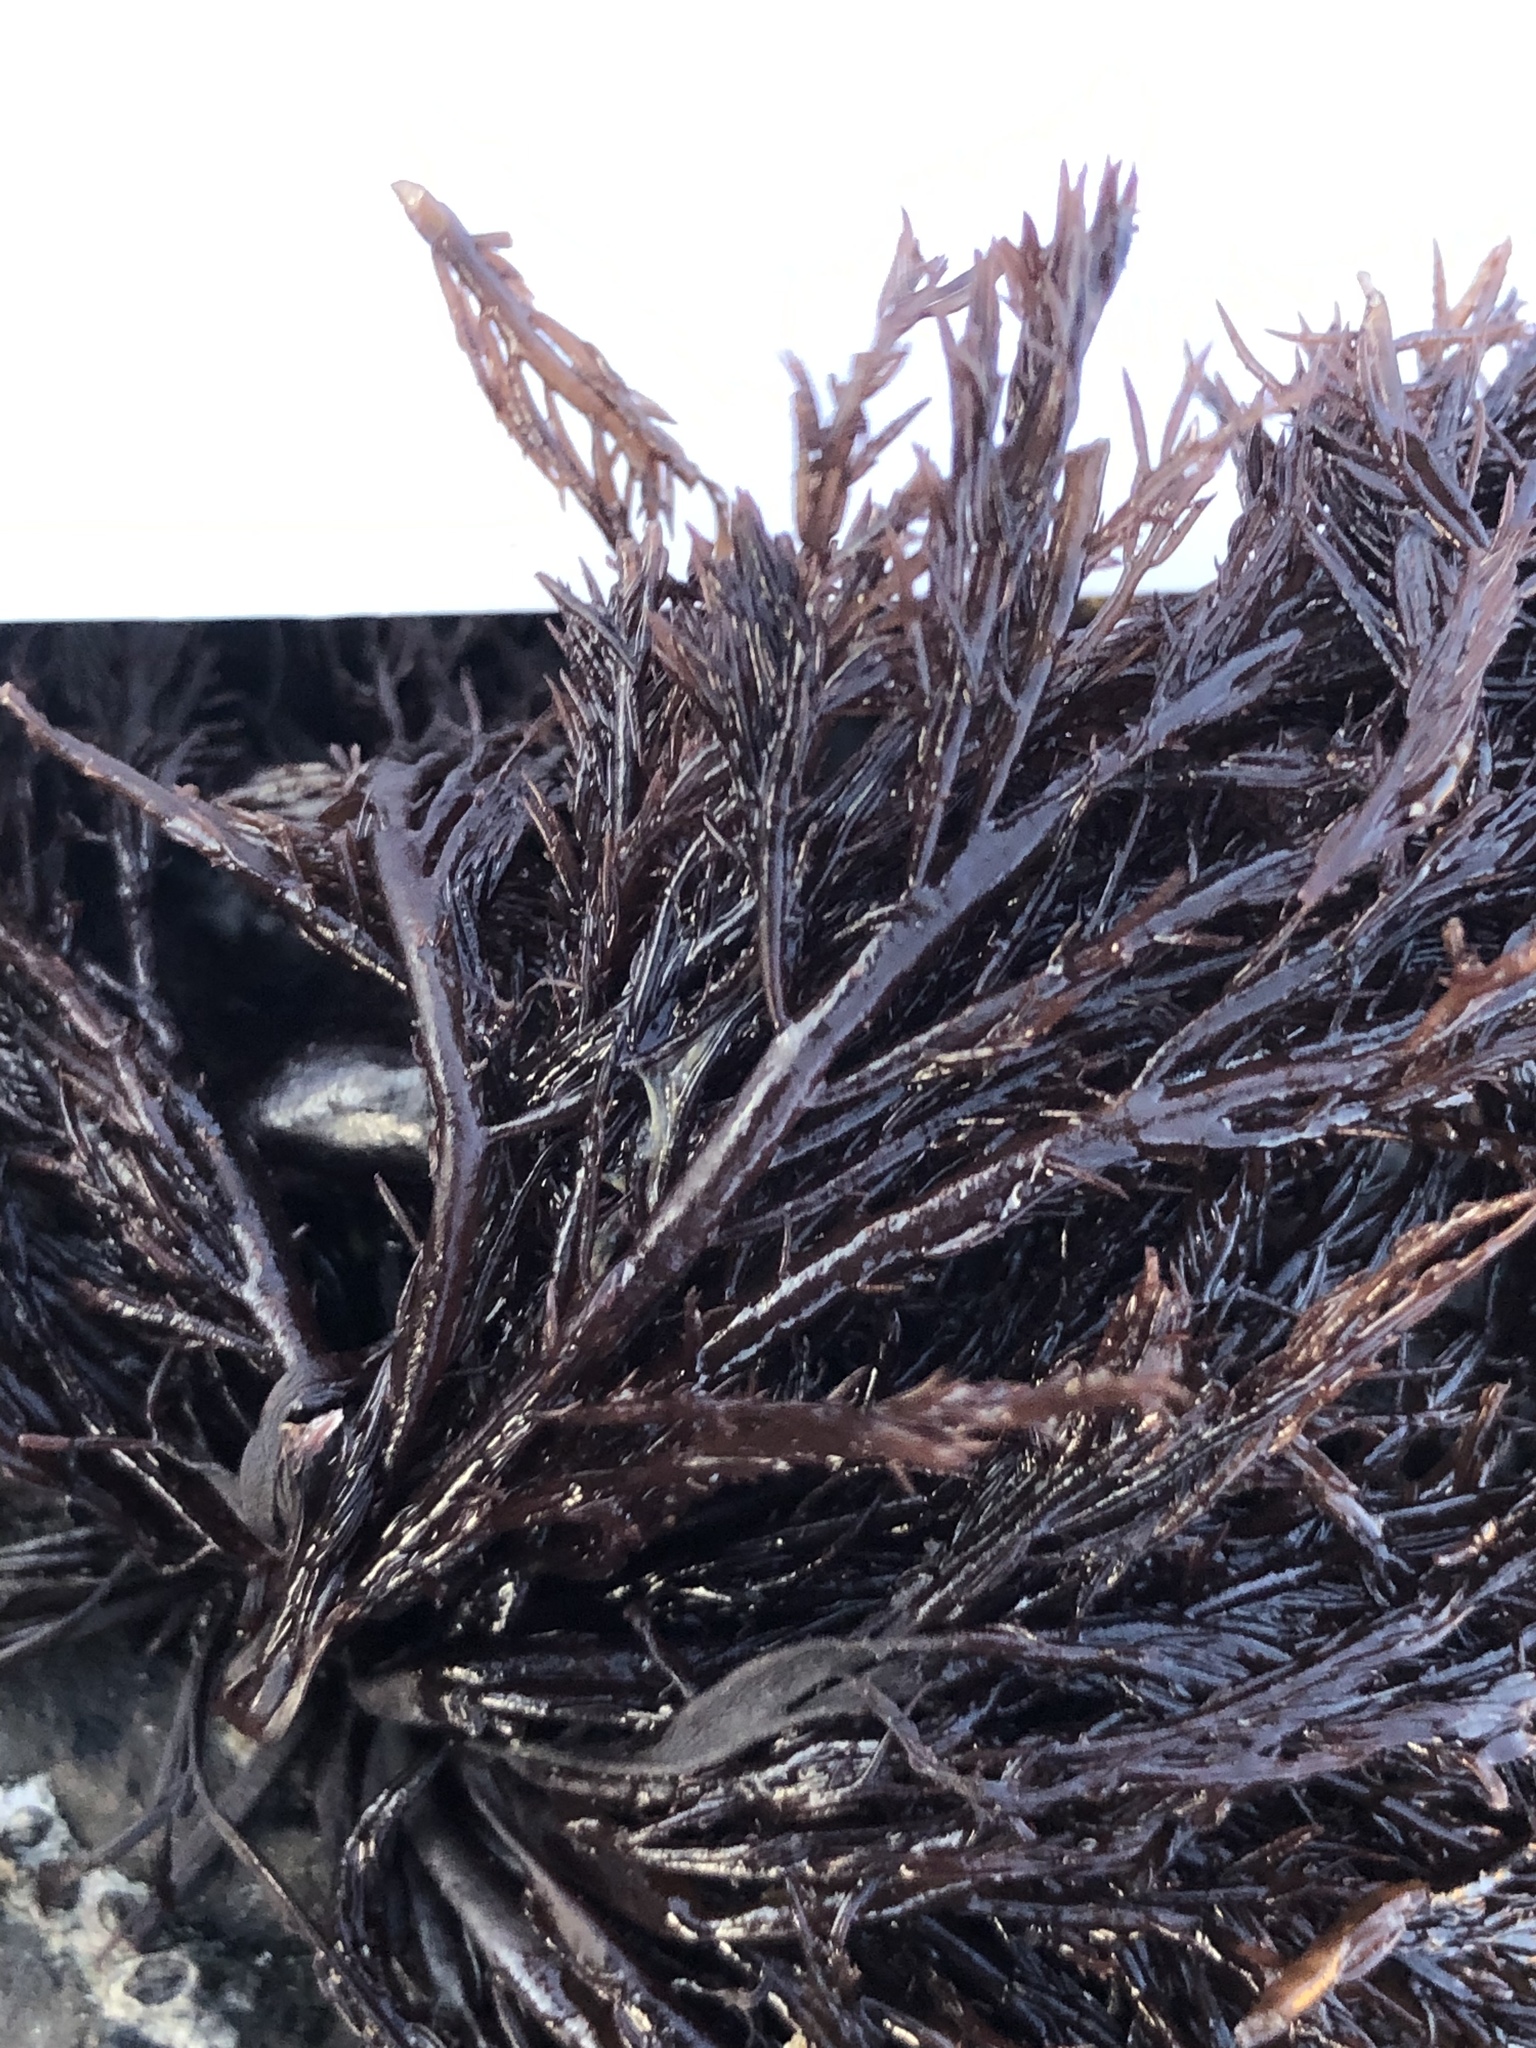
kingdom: Plantae
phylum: Rhodophyta
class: Florideophyceae
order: Gigartinales
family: Dumontiaceae
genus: Cryptosiphonia
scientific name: Cryptosiphonia woodii
